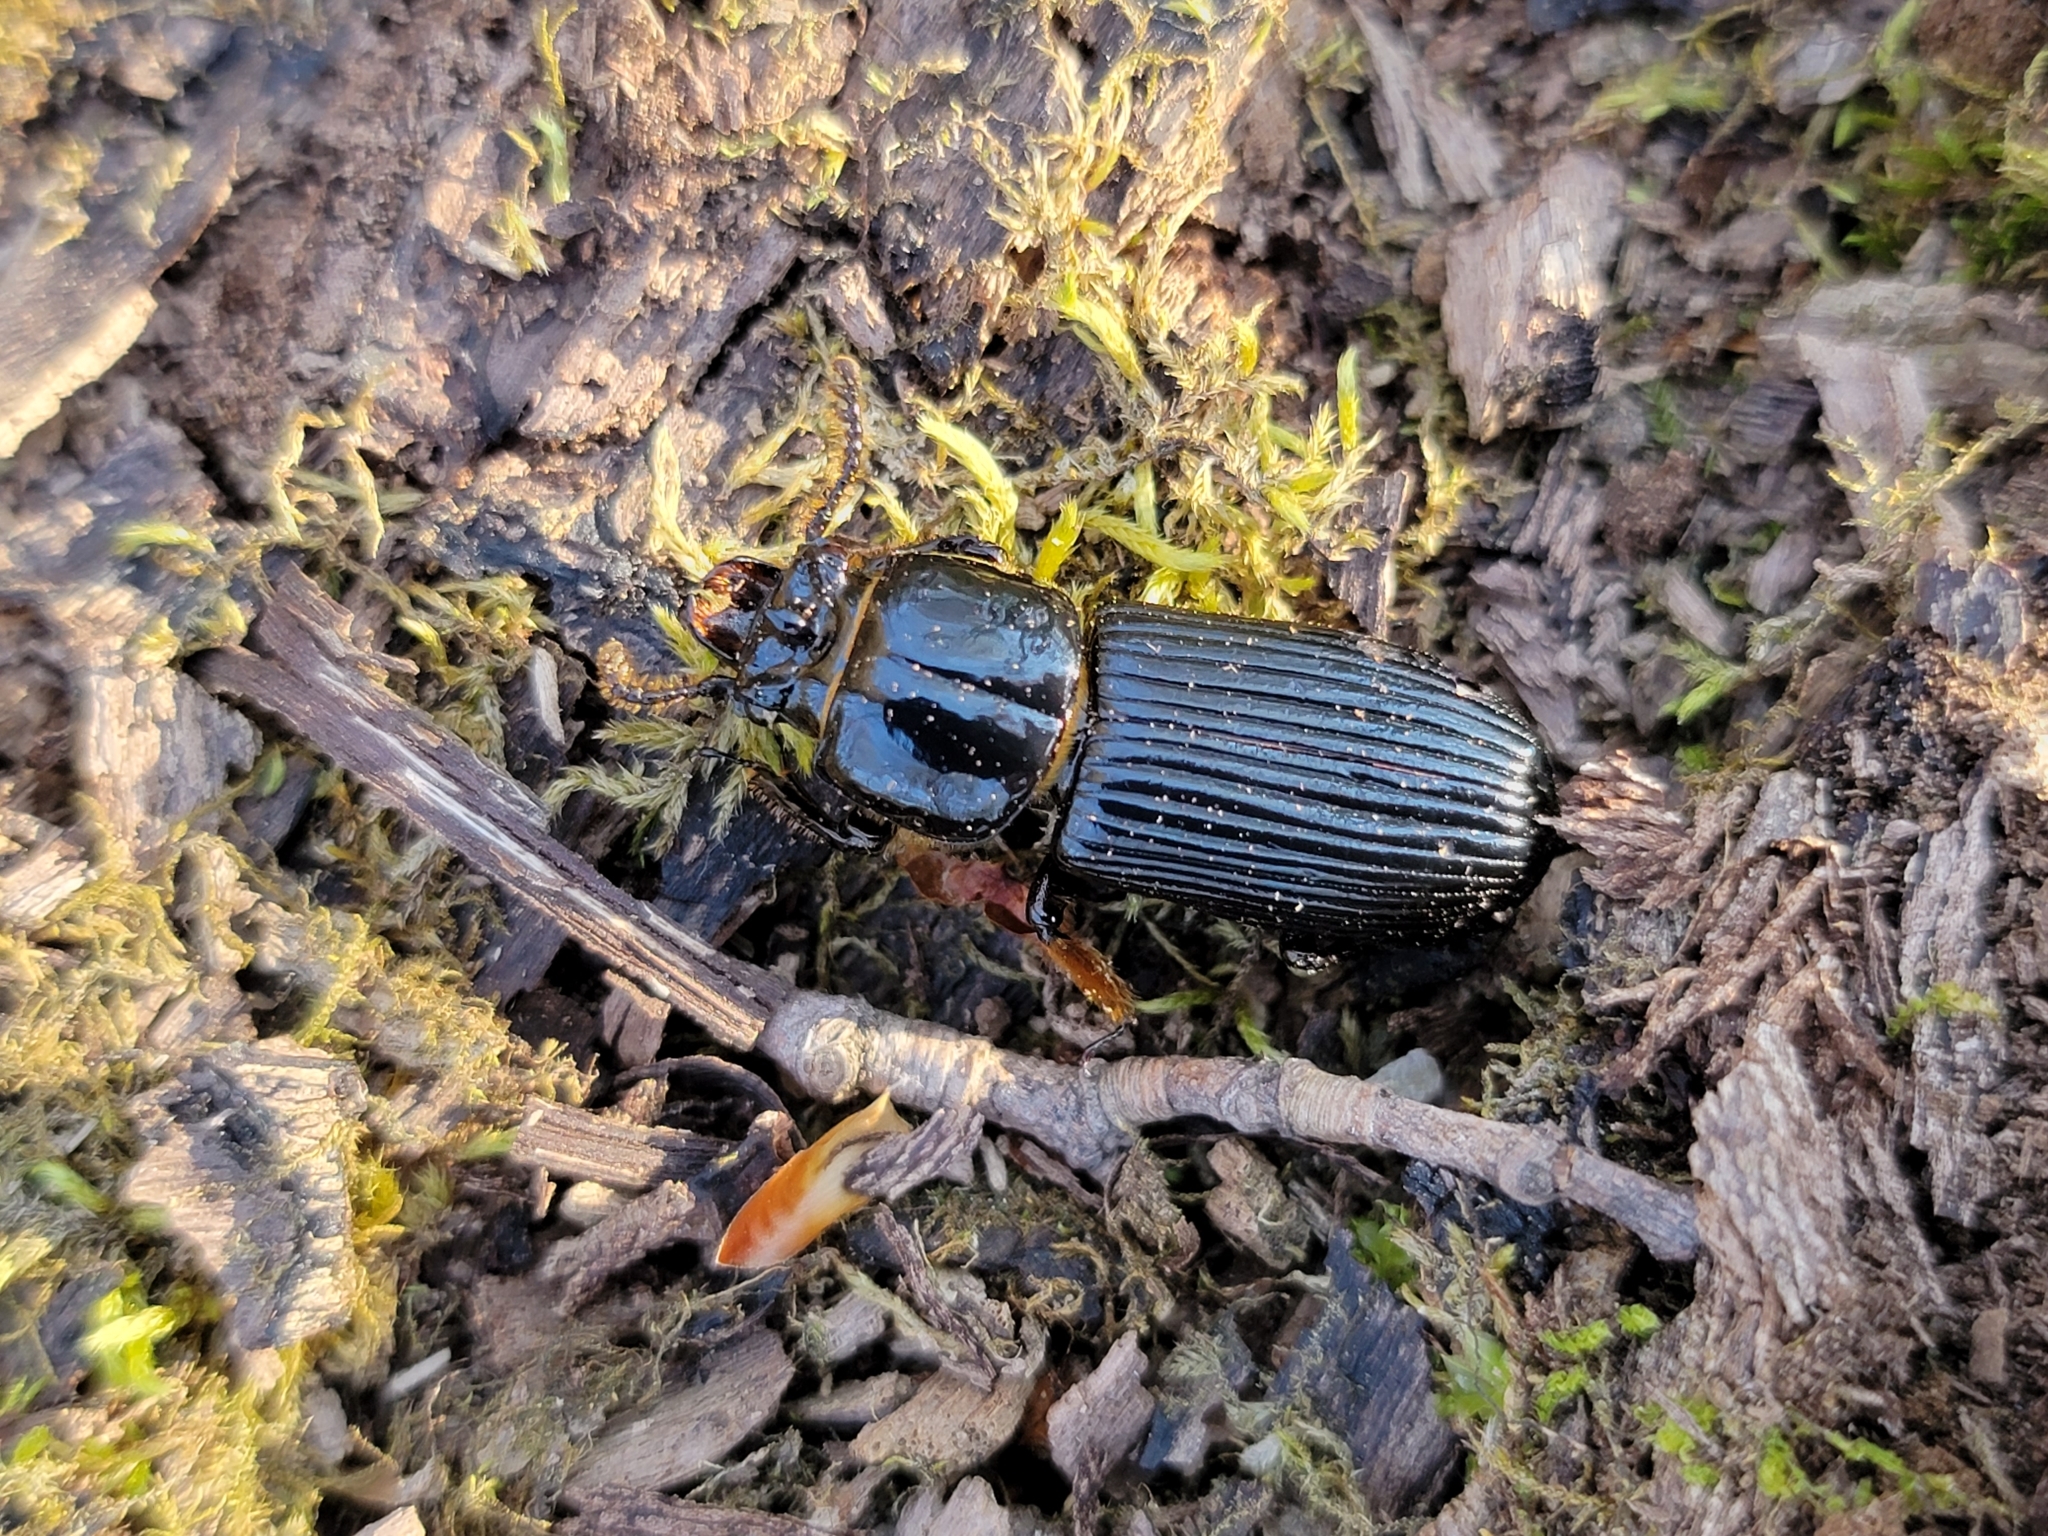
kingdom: Animalia
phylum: Arthropoda
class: Insecta
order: Coleoptera
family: Passalidae
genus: Odontotaenius
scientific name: Odontotaenius disjunctus
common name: Patent leather beetle
